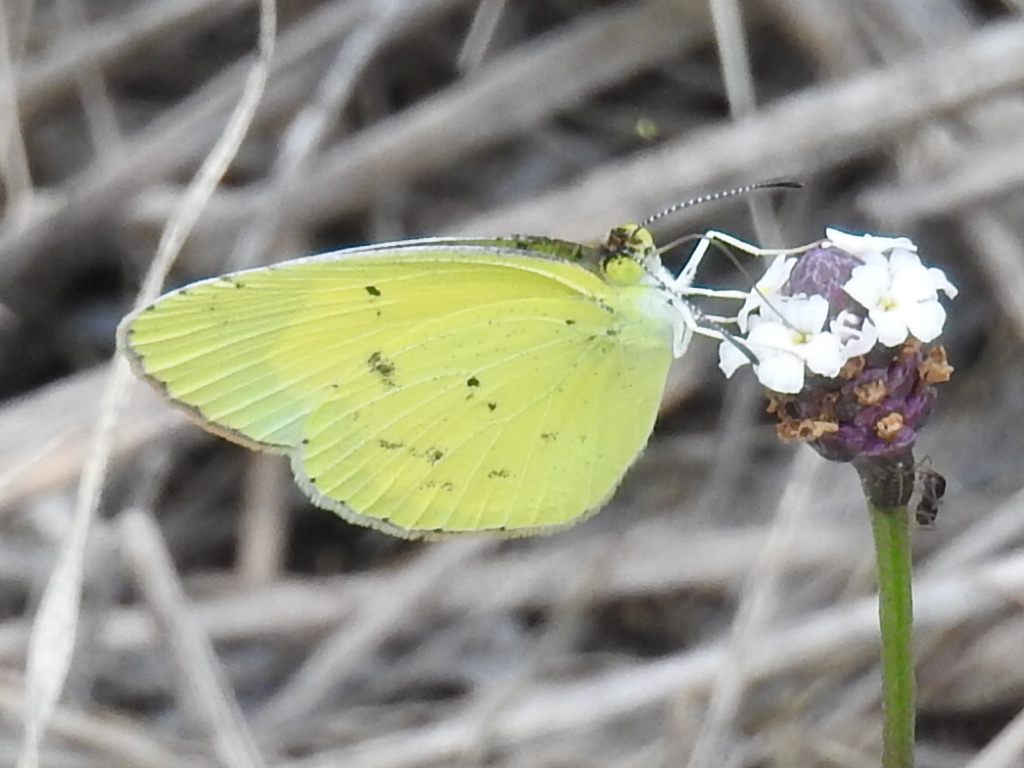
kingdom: Animalia
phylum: Arthropoda
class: Insecta
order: Lepidoptera
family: Pieridae
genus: Pyrisitia
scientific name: Pyrisitia lisa
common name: Little yellow
